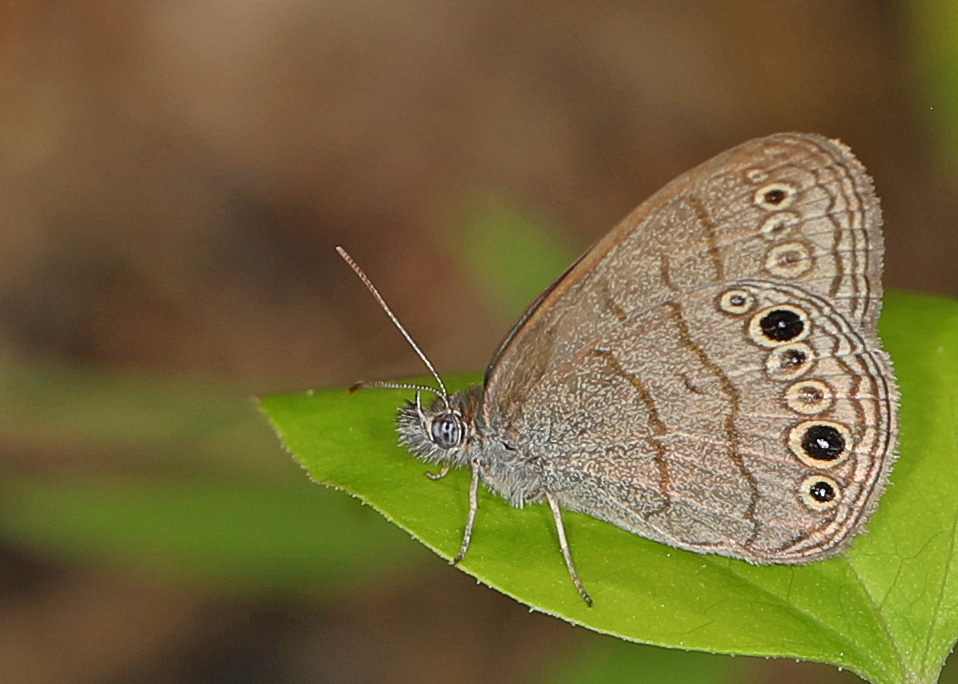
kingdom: Animalia
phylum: Arthropoda
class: Insecta
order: Lepidoptera
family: Nymphalidae
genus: Hermeuptychia
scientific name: Hermeuptychia hermes
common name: Hermes satyr
